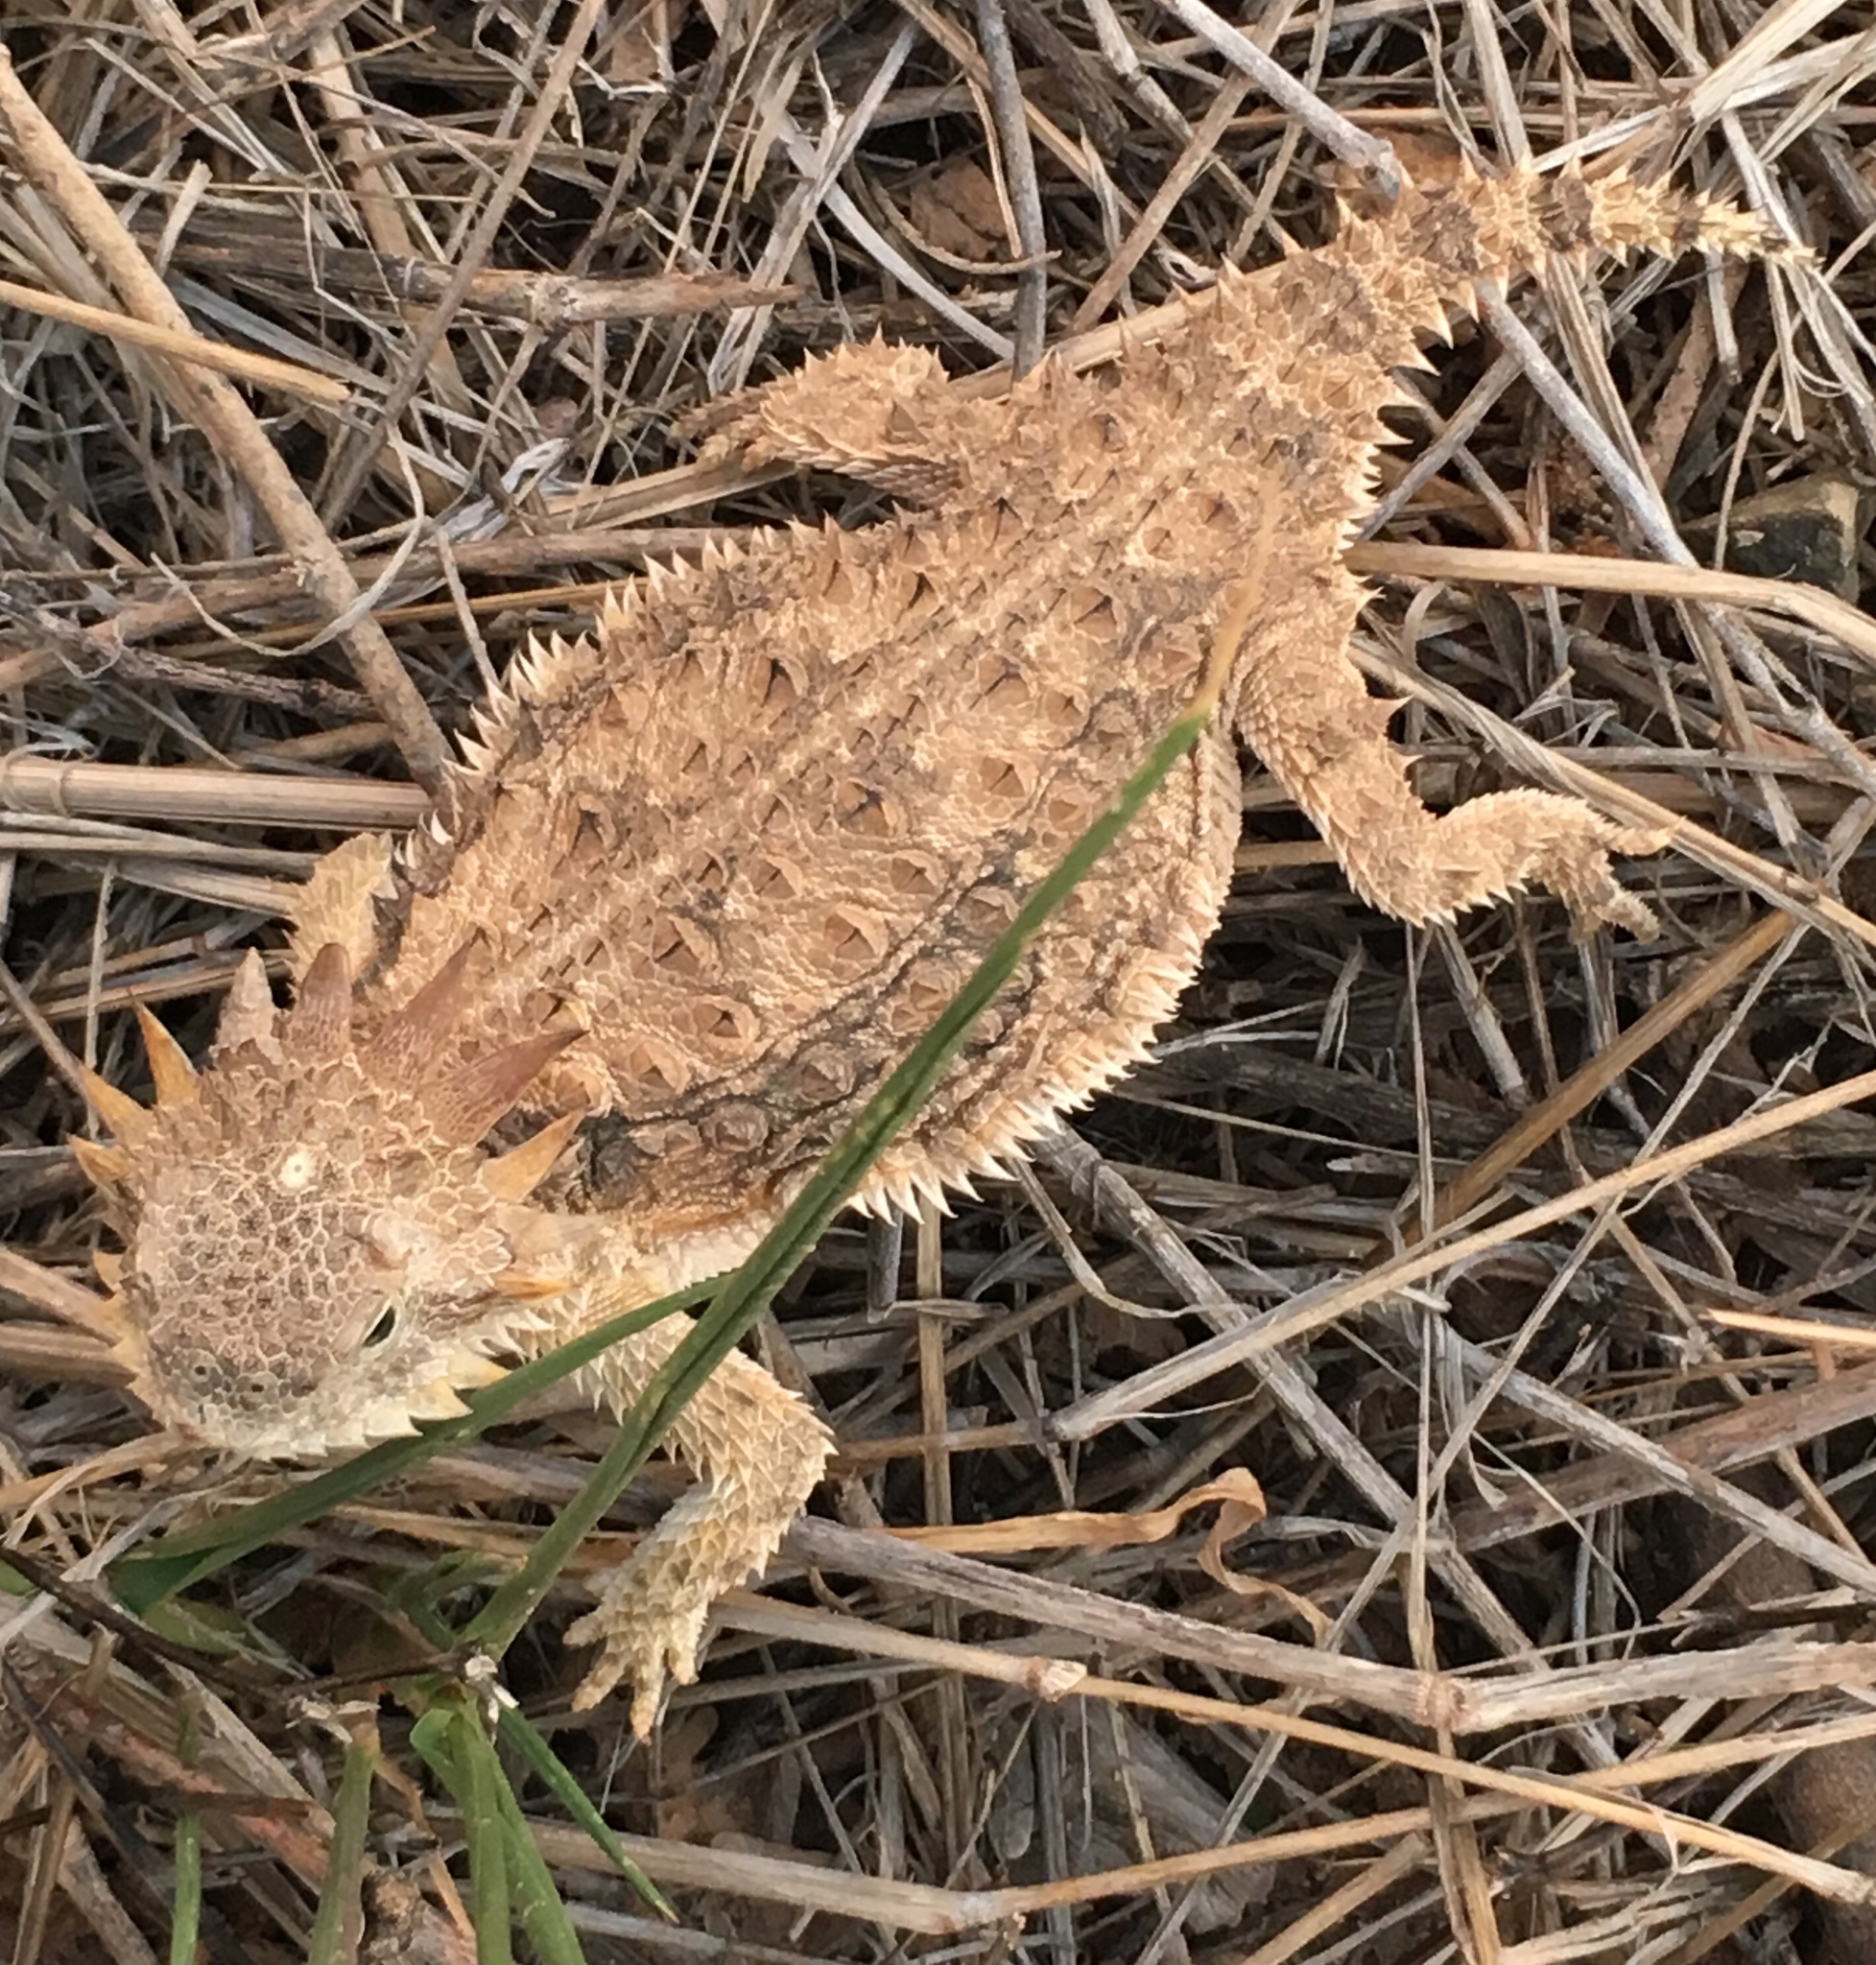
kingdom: Animalia
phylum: Chordata
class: Squamata
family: Phrynosomatidae
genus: Phrynosoma
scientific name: Phrynosoma solare
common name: Regal horned lizard
